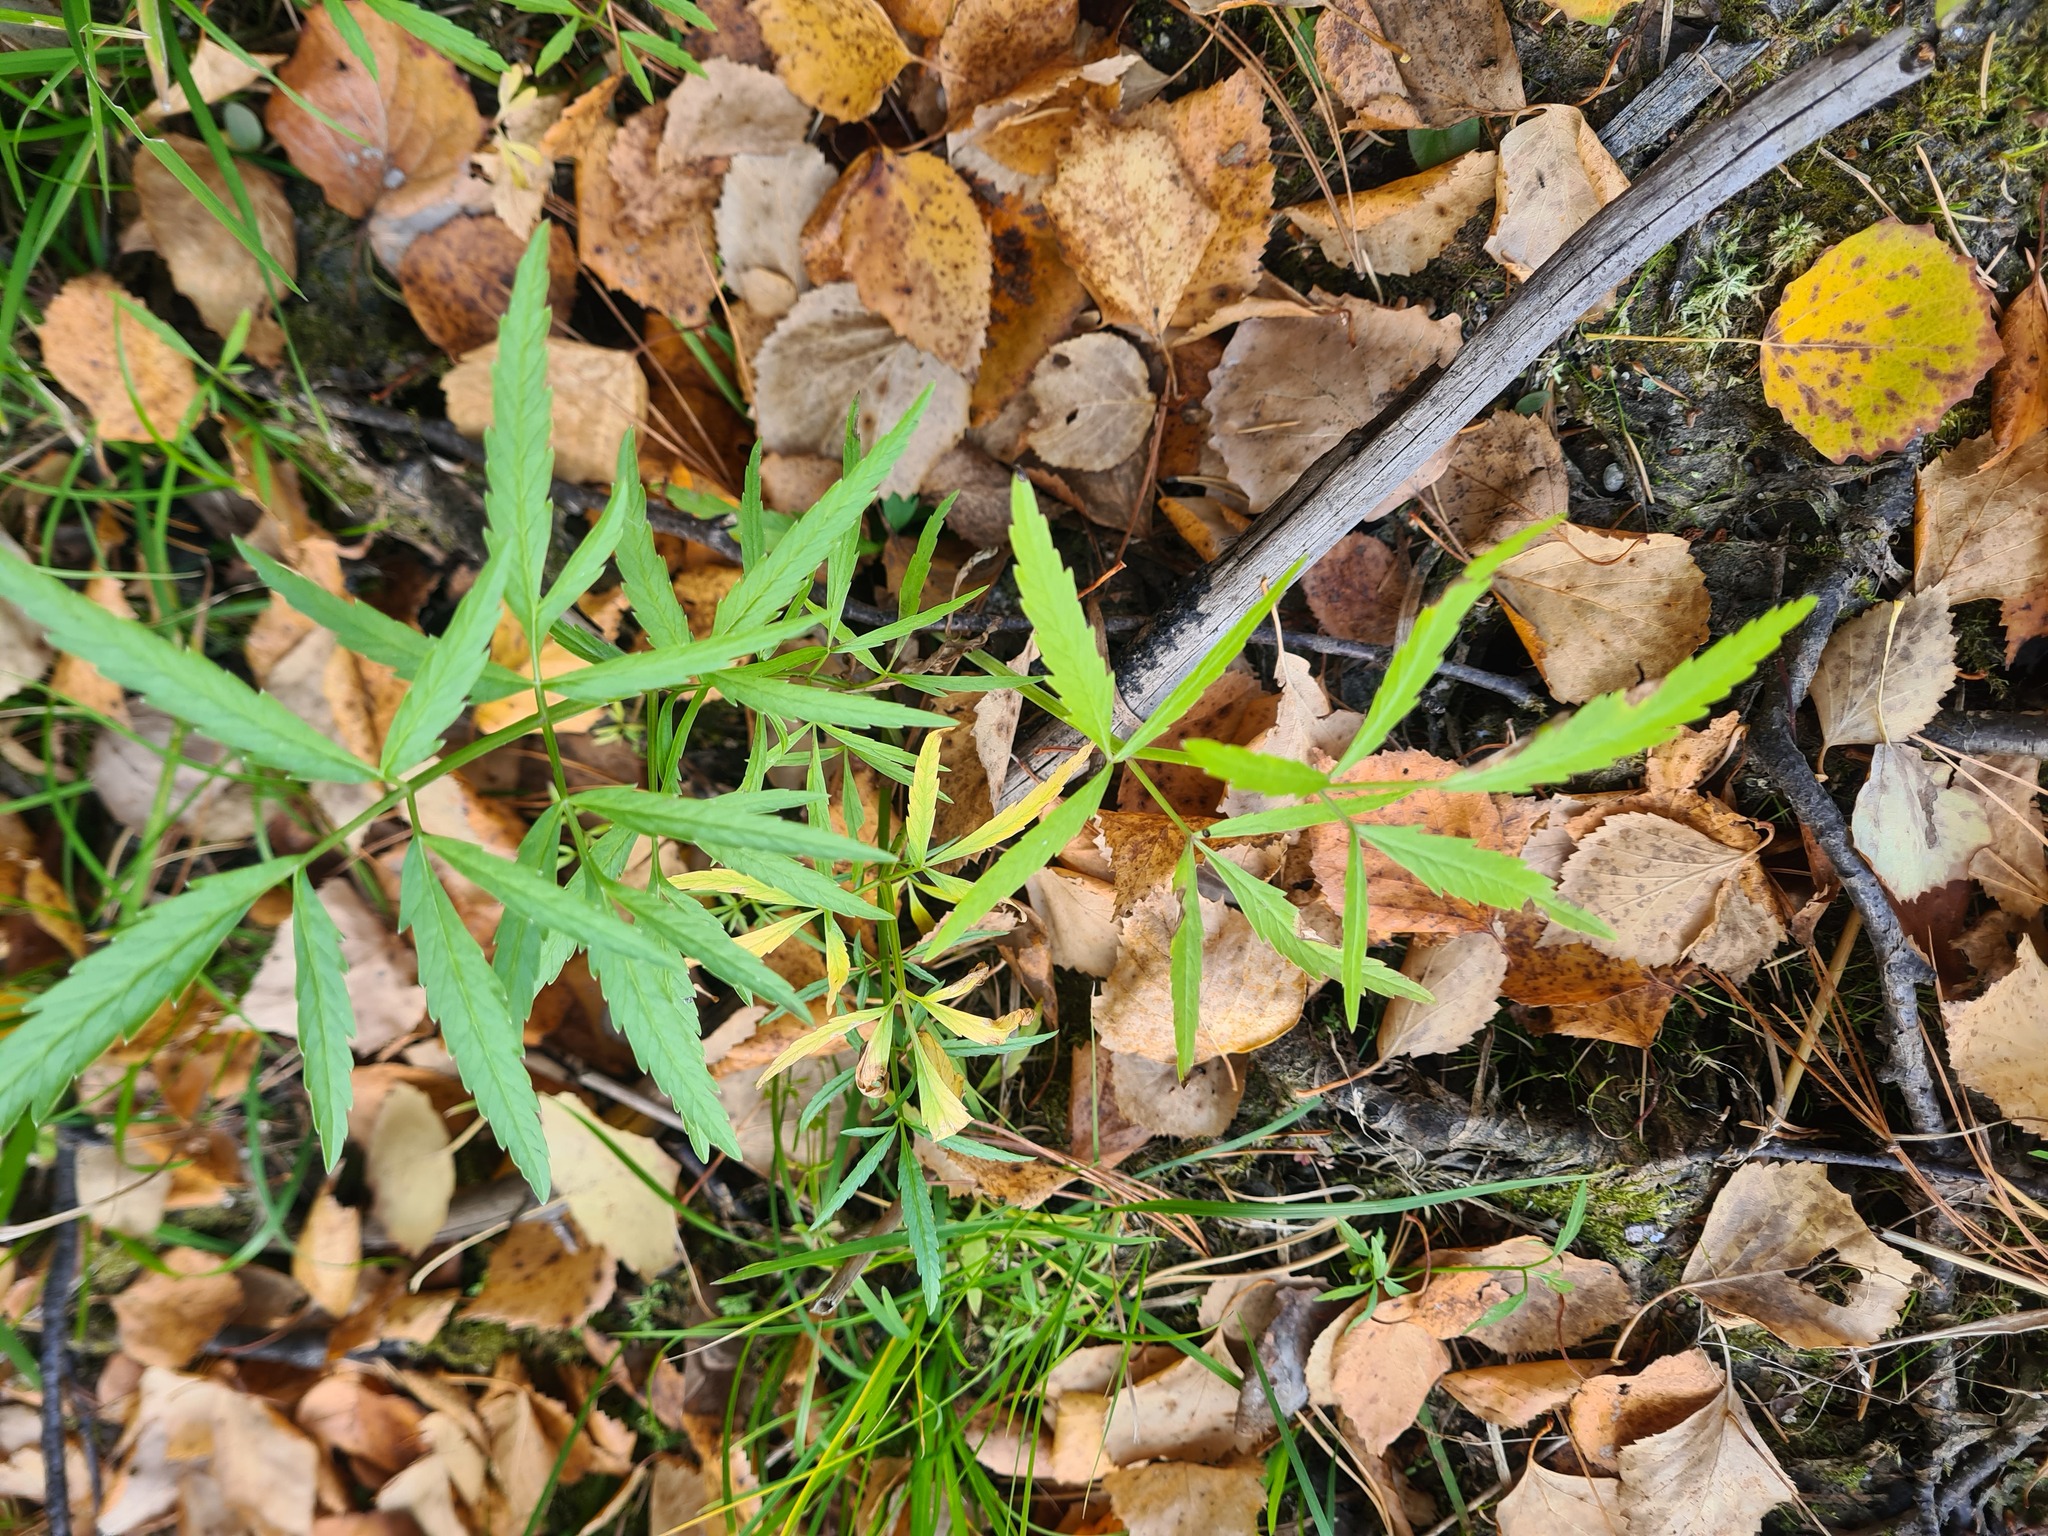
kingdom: Plantae
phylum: Tracheophyta
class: Magnoliopsida
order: Apiales
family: Apiaceae
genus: Cicuta
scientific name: Cicuta virosa
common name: Cowbane
